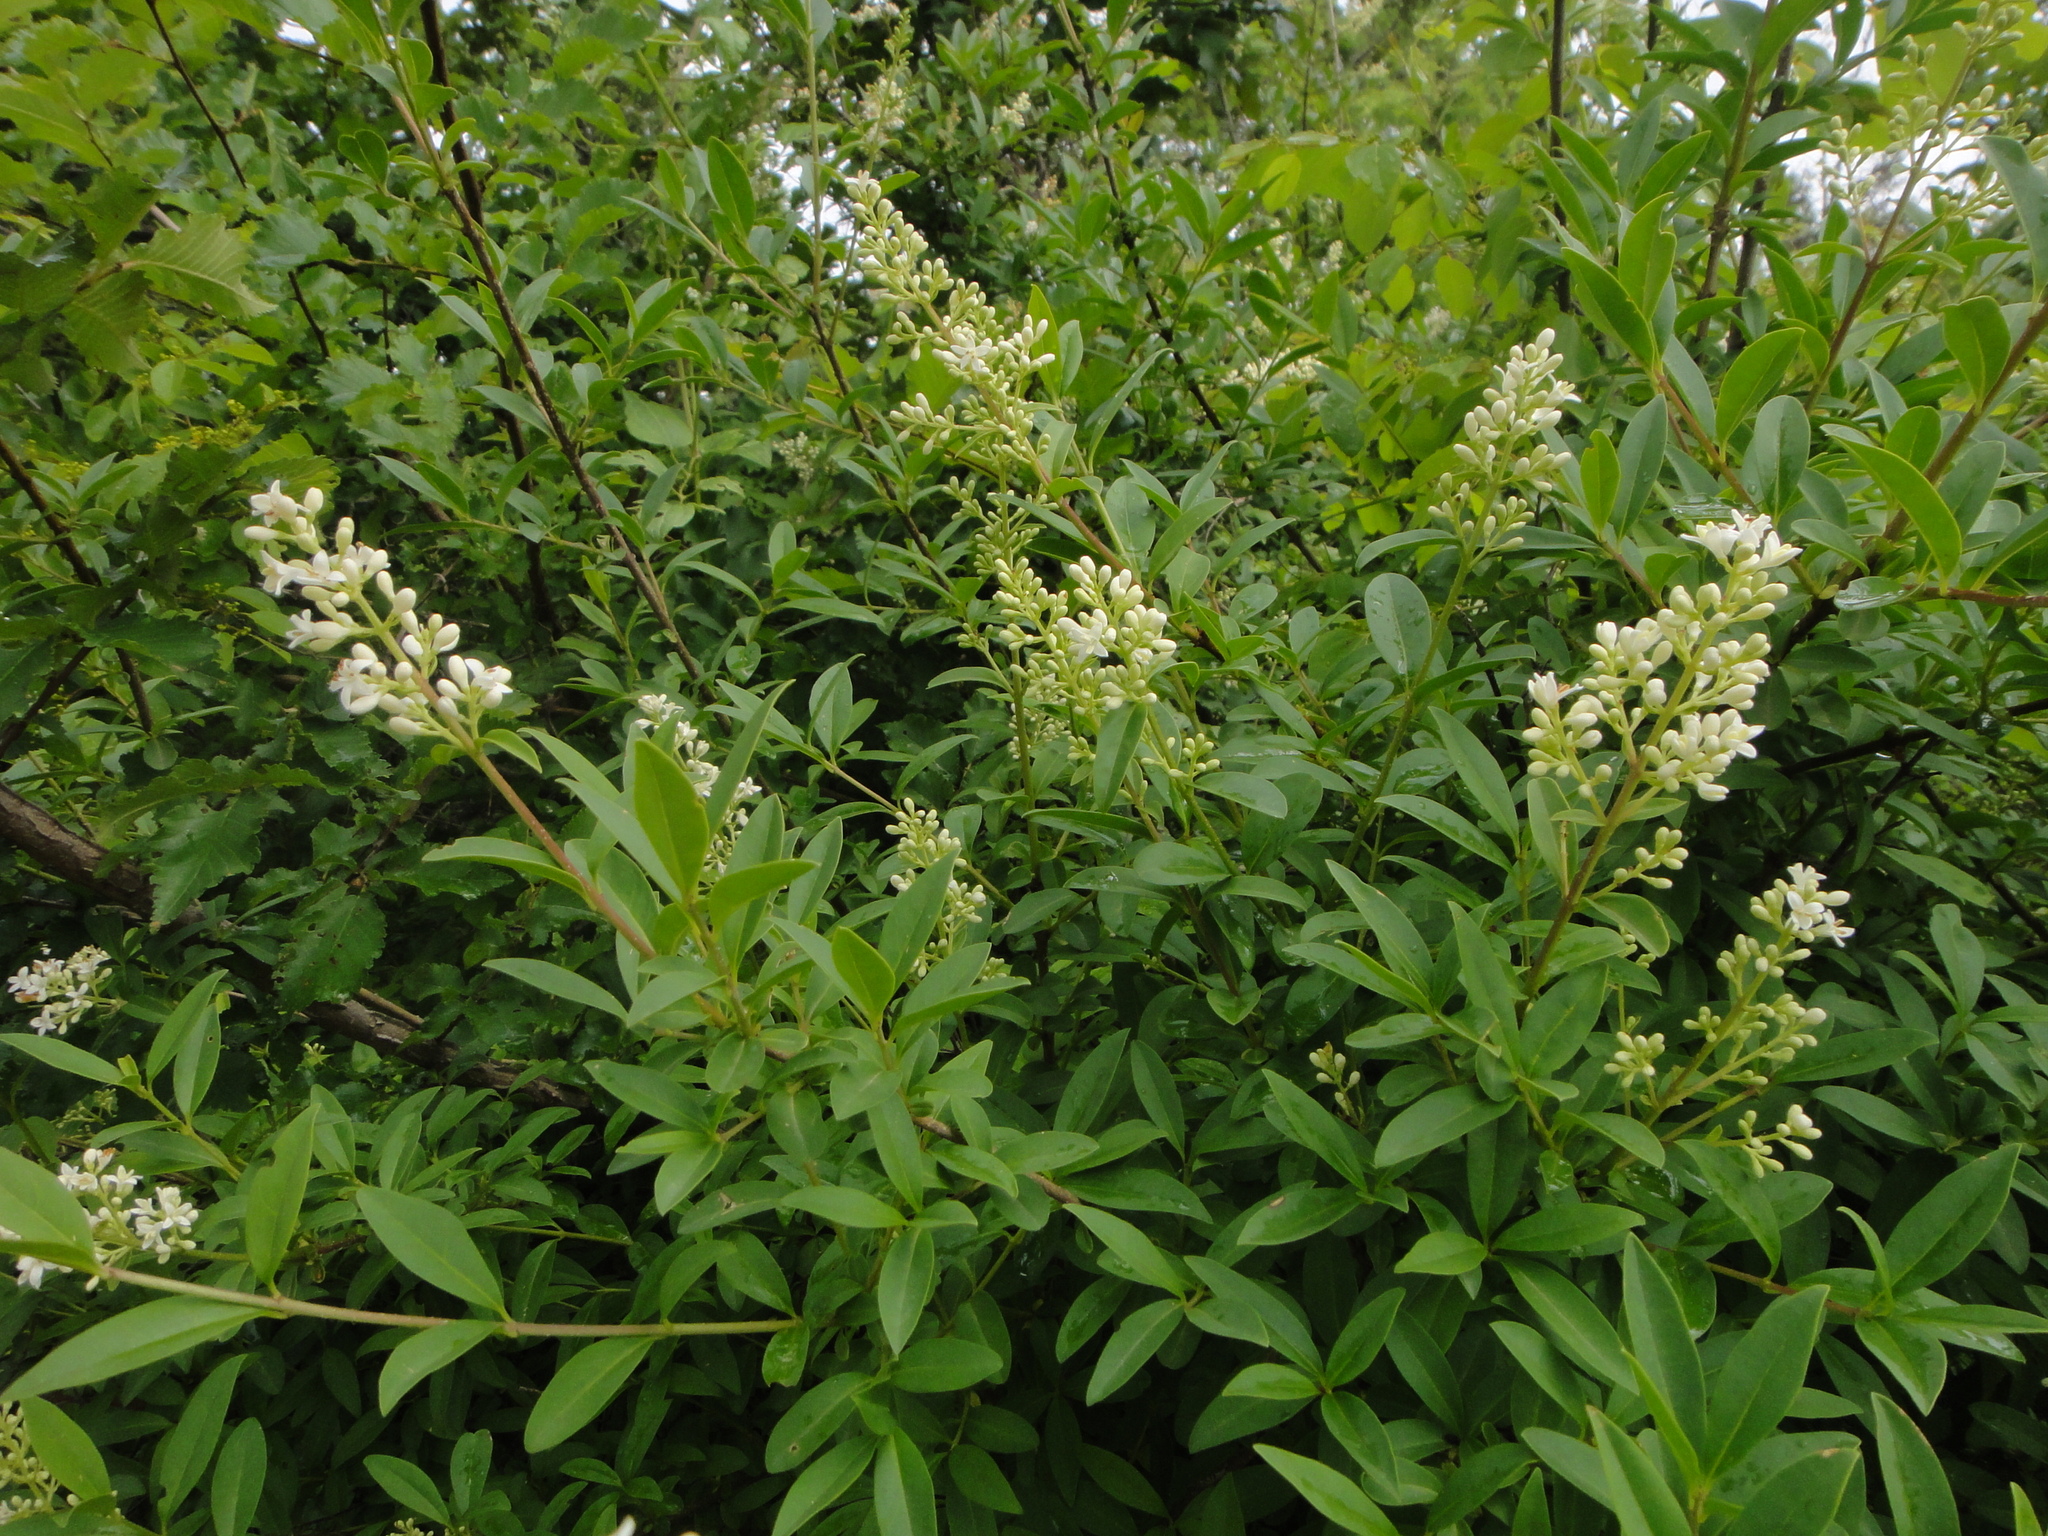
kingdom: Plantae
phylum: Tracheophyta
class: Magnoliopsida
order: Lamiales
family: Oleaceae
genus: Ligustrum
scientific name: Ligustrum vulgare
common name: Wild privet
